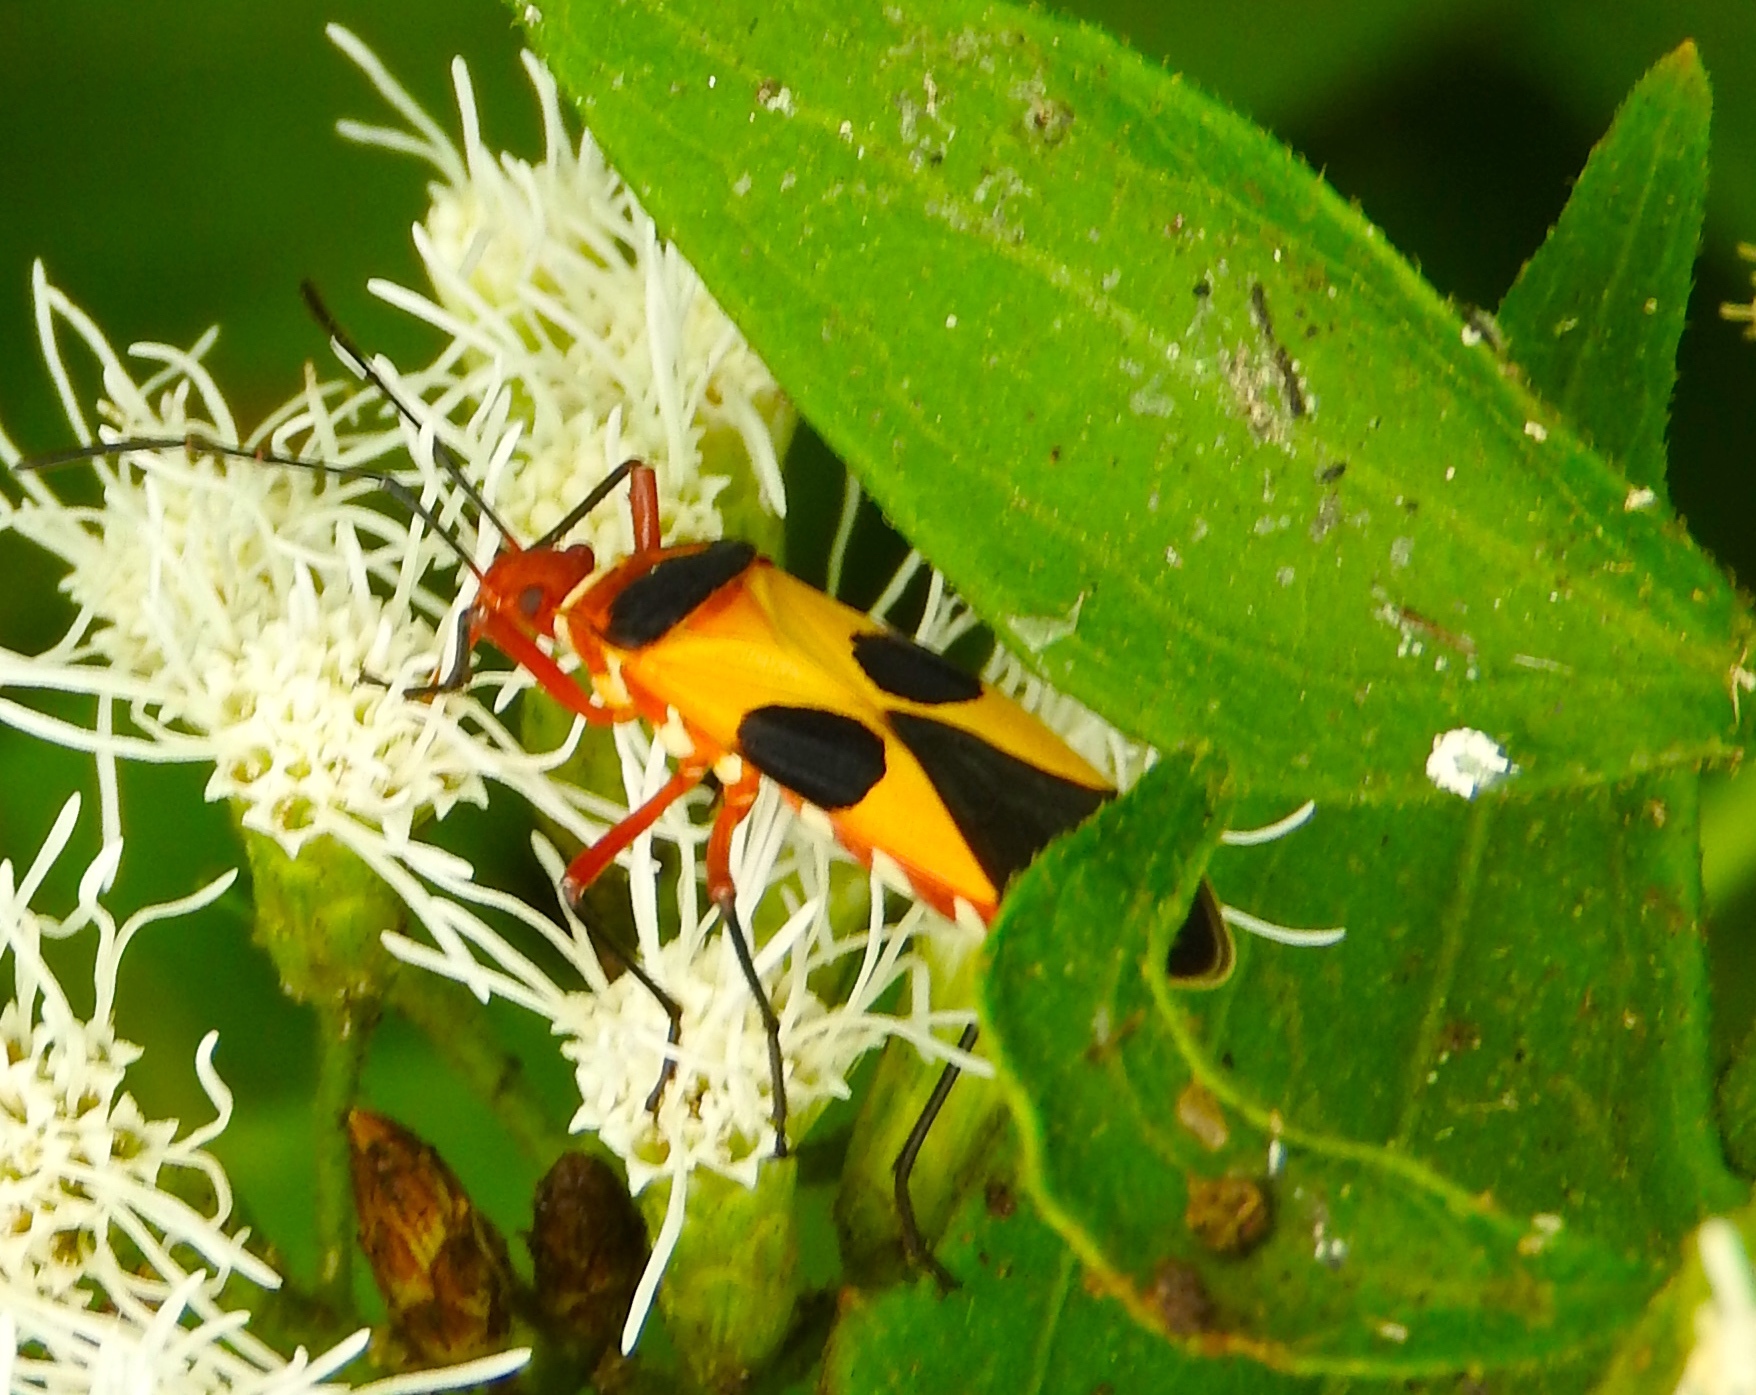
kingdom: Animalia
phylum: Arthropoda
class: Insecta
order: Hemiptera
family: Pyrrhocoridae
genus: Dysdercus
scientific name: Dysdercus concinnus
